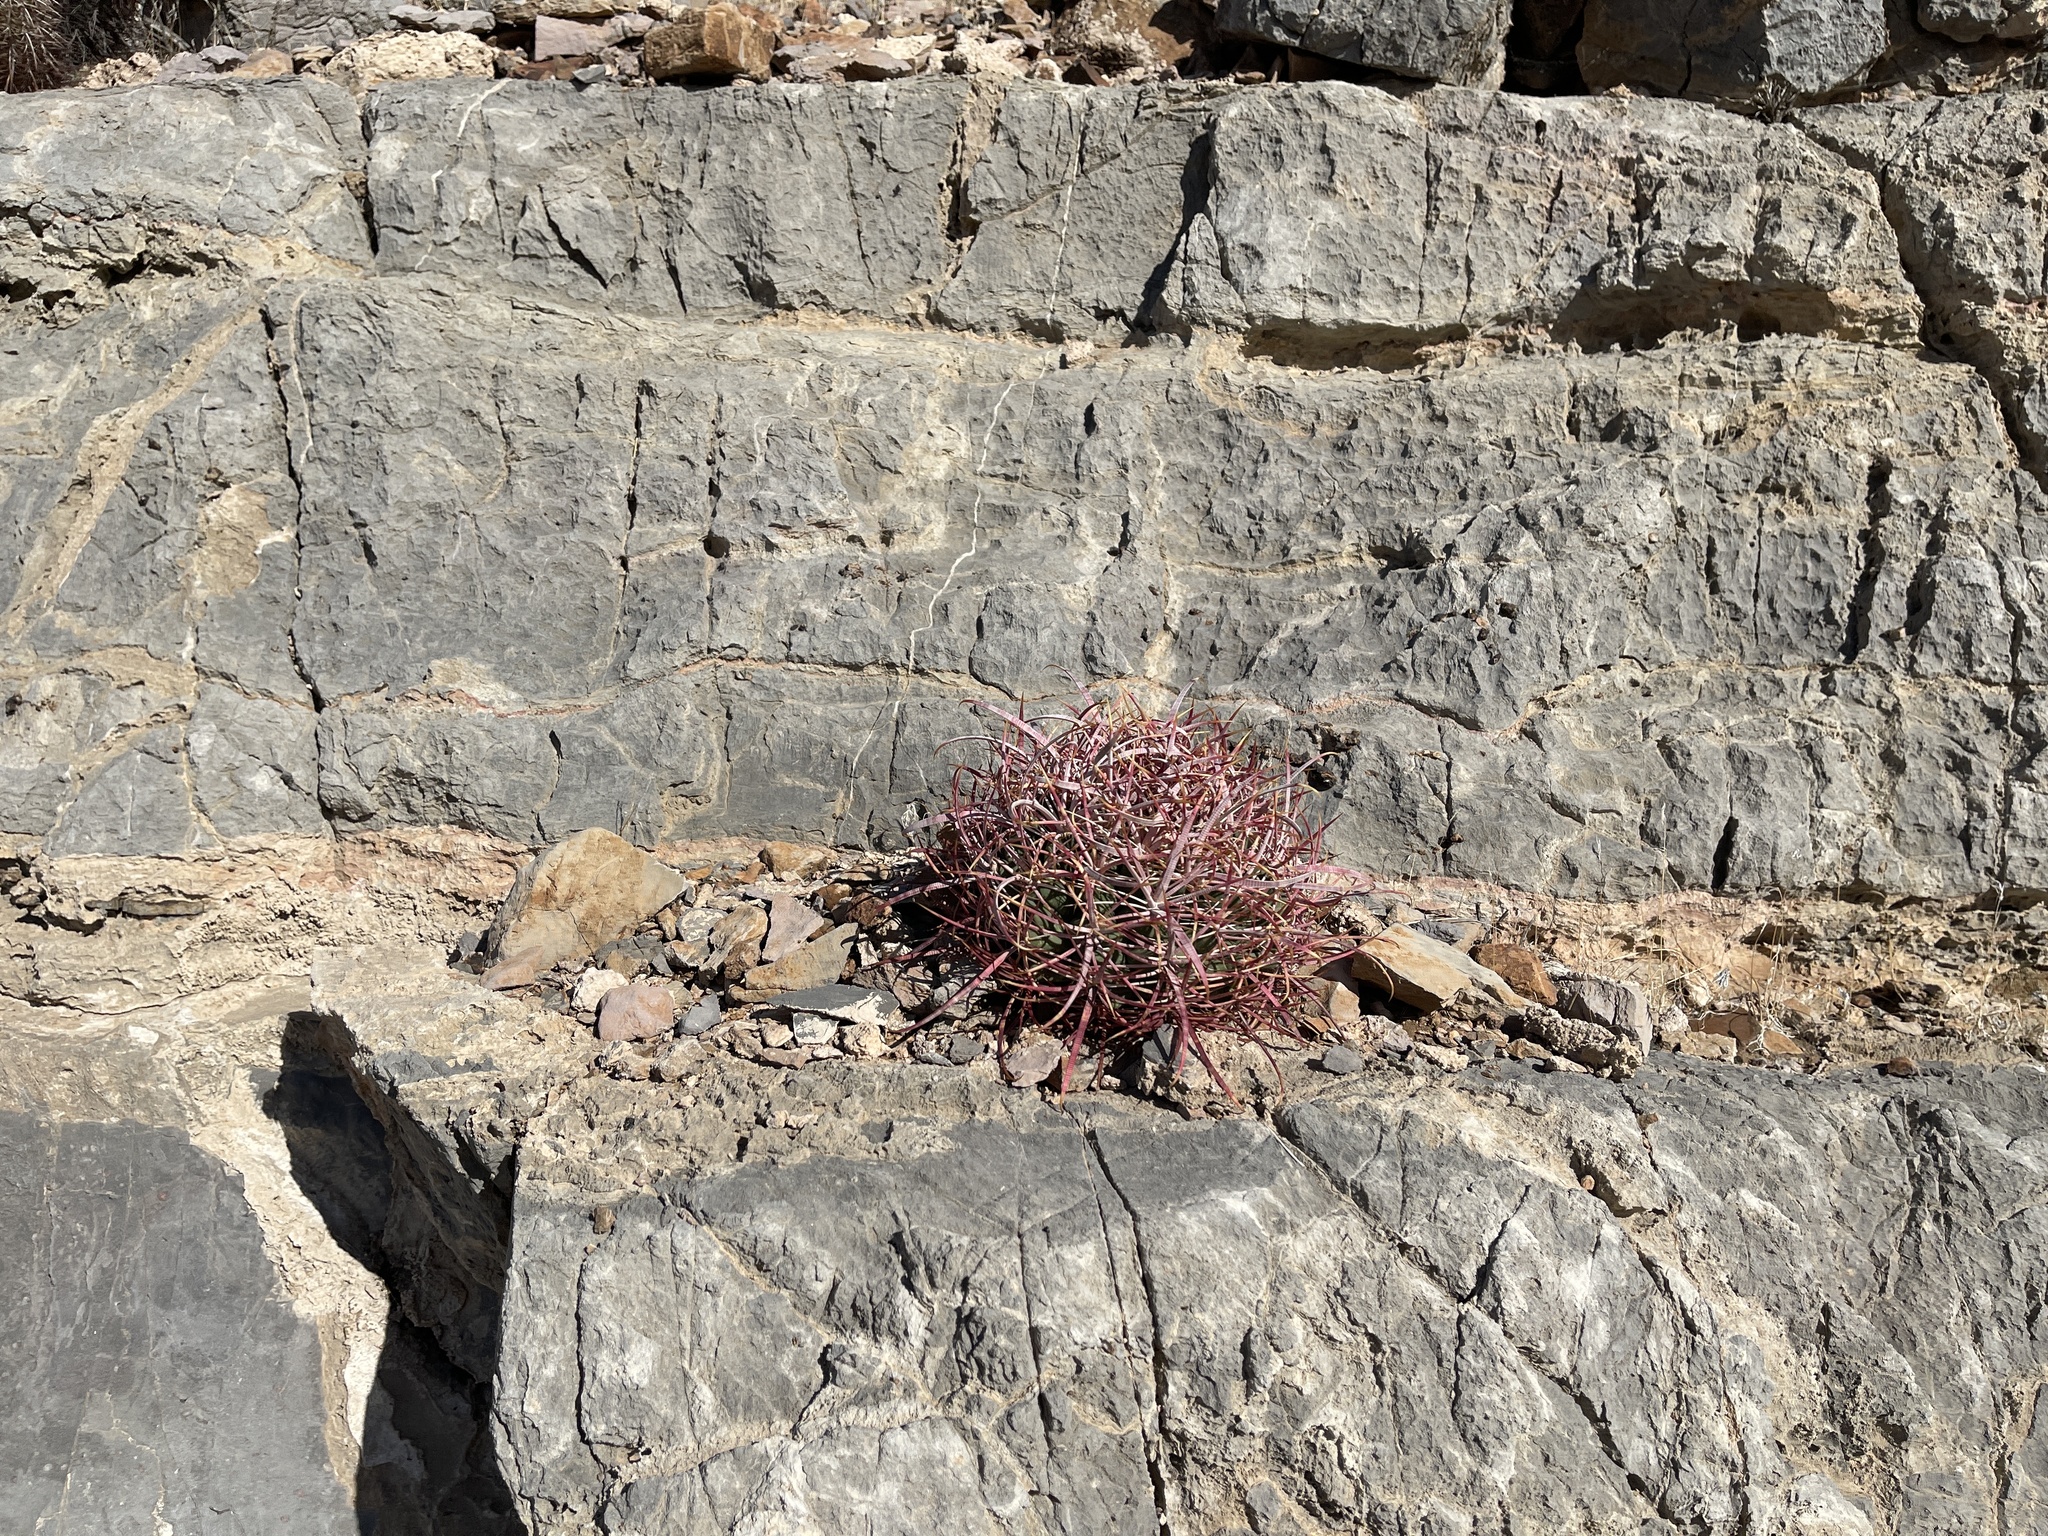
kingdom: Plantae
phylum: Tracheophyta
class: Magnoliopsida
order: Caryophyllales
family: Cactaceae
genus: Ferocactus
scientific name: Ferocactus cylindraceus
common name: California barrel cactus
